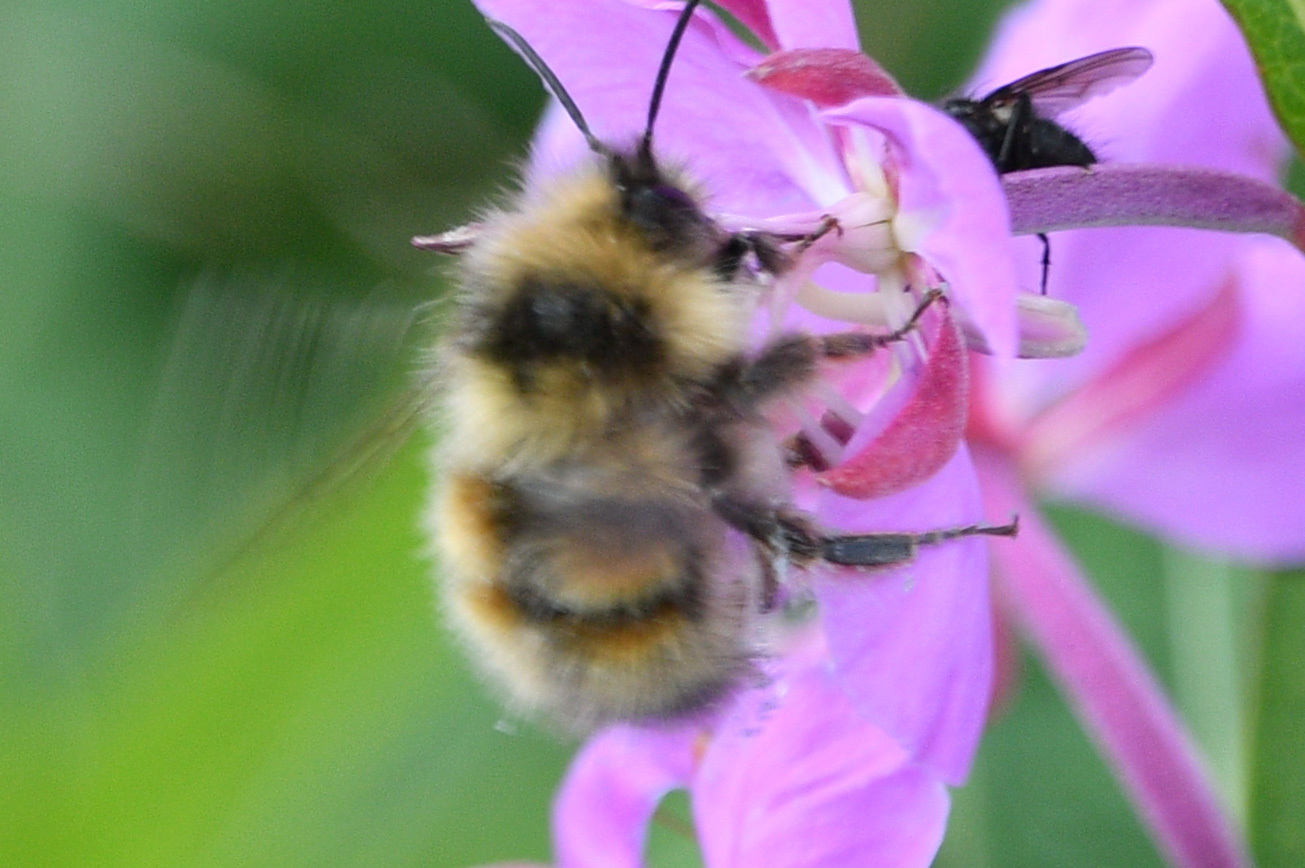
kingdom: Animalia
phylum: Arthropoda
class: Insecta
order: Hymenoptera
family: Apidae
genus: Bombus
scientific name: Bombus sylvicola
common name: Forest bumble bee
